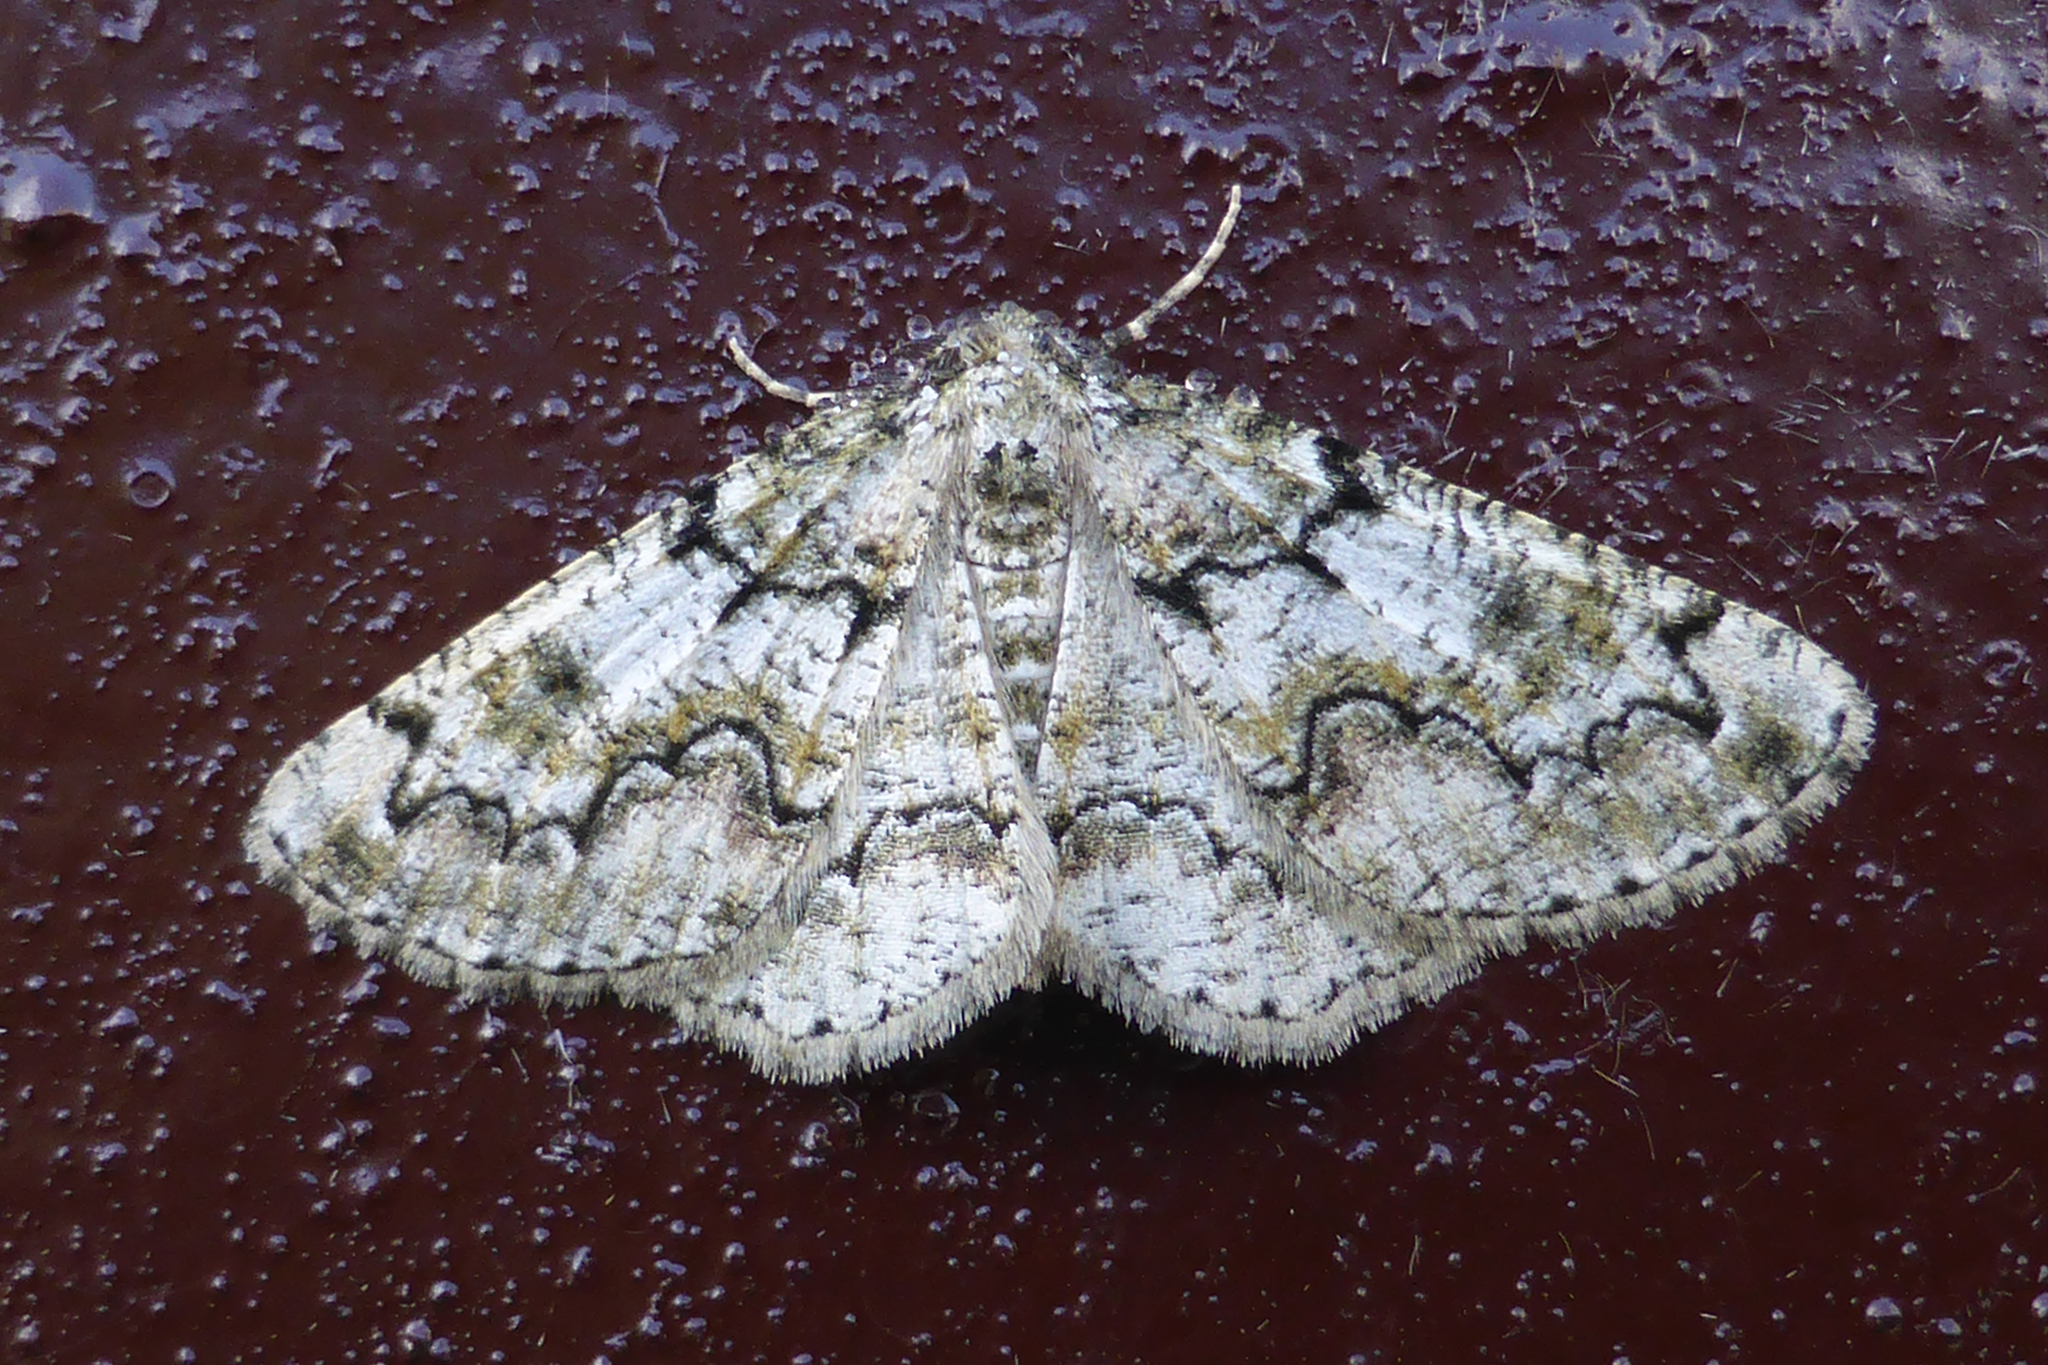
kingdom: Animalia
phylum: Arthropoda
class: Insecta
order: Lepidoptera
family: Geometridae
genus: Cleorodes
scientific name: Cleorodes lichenaria
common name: Brussels lace
